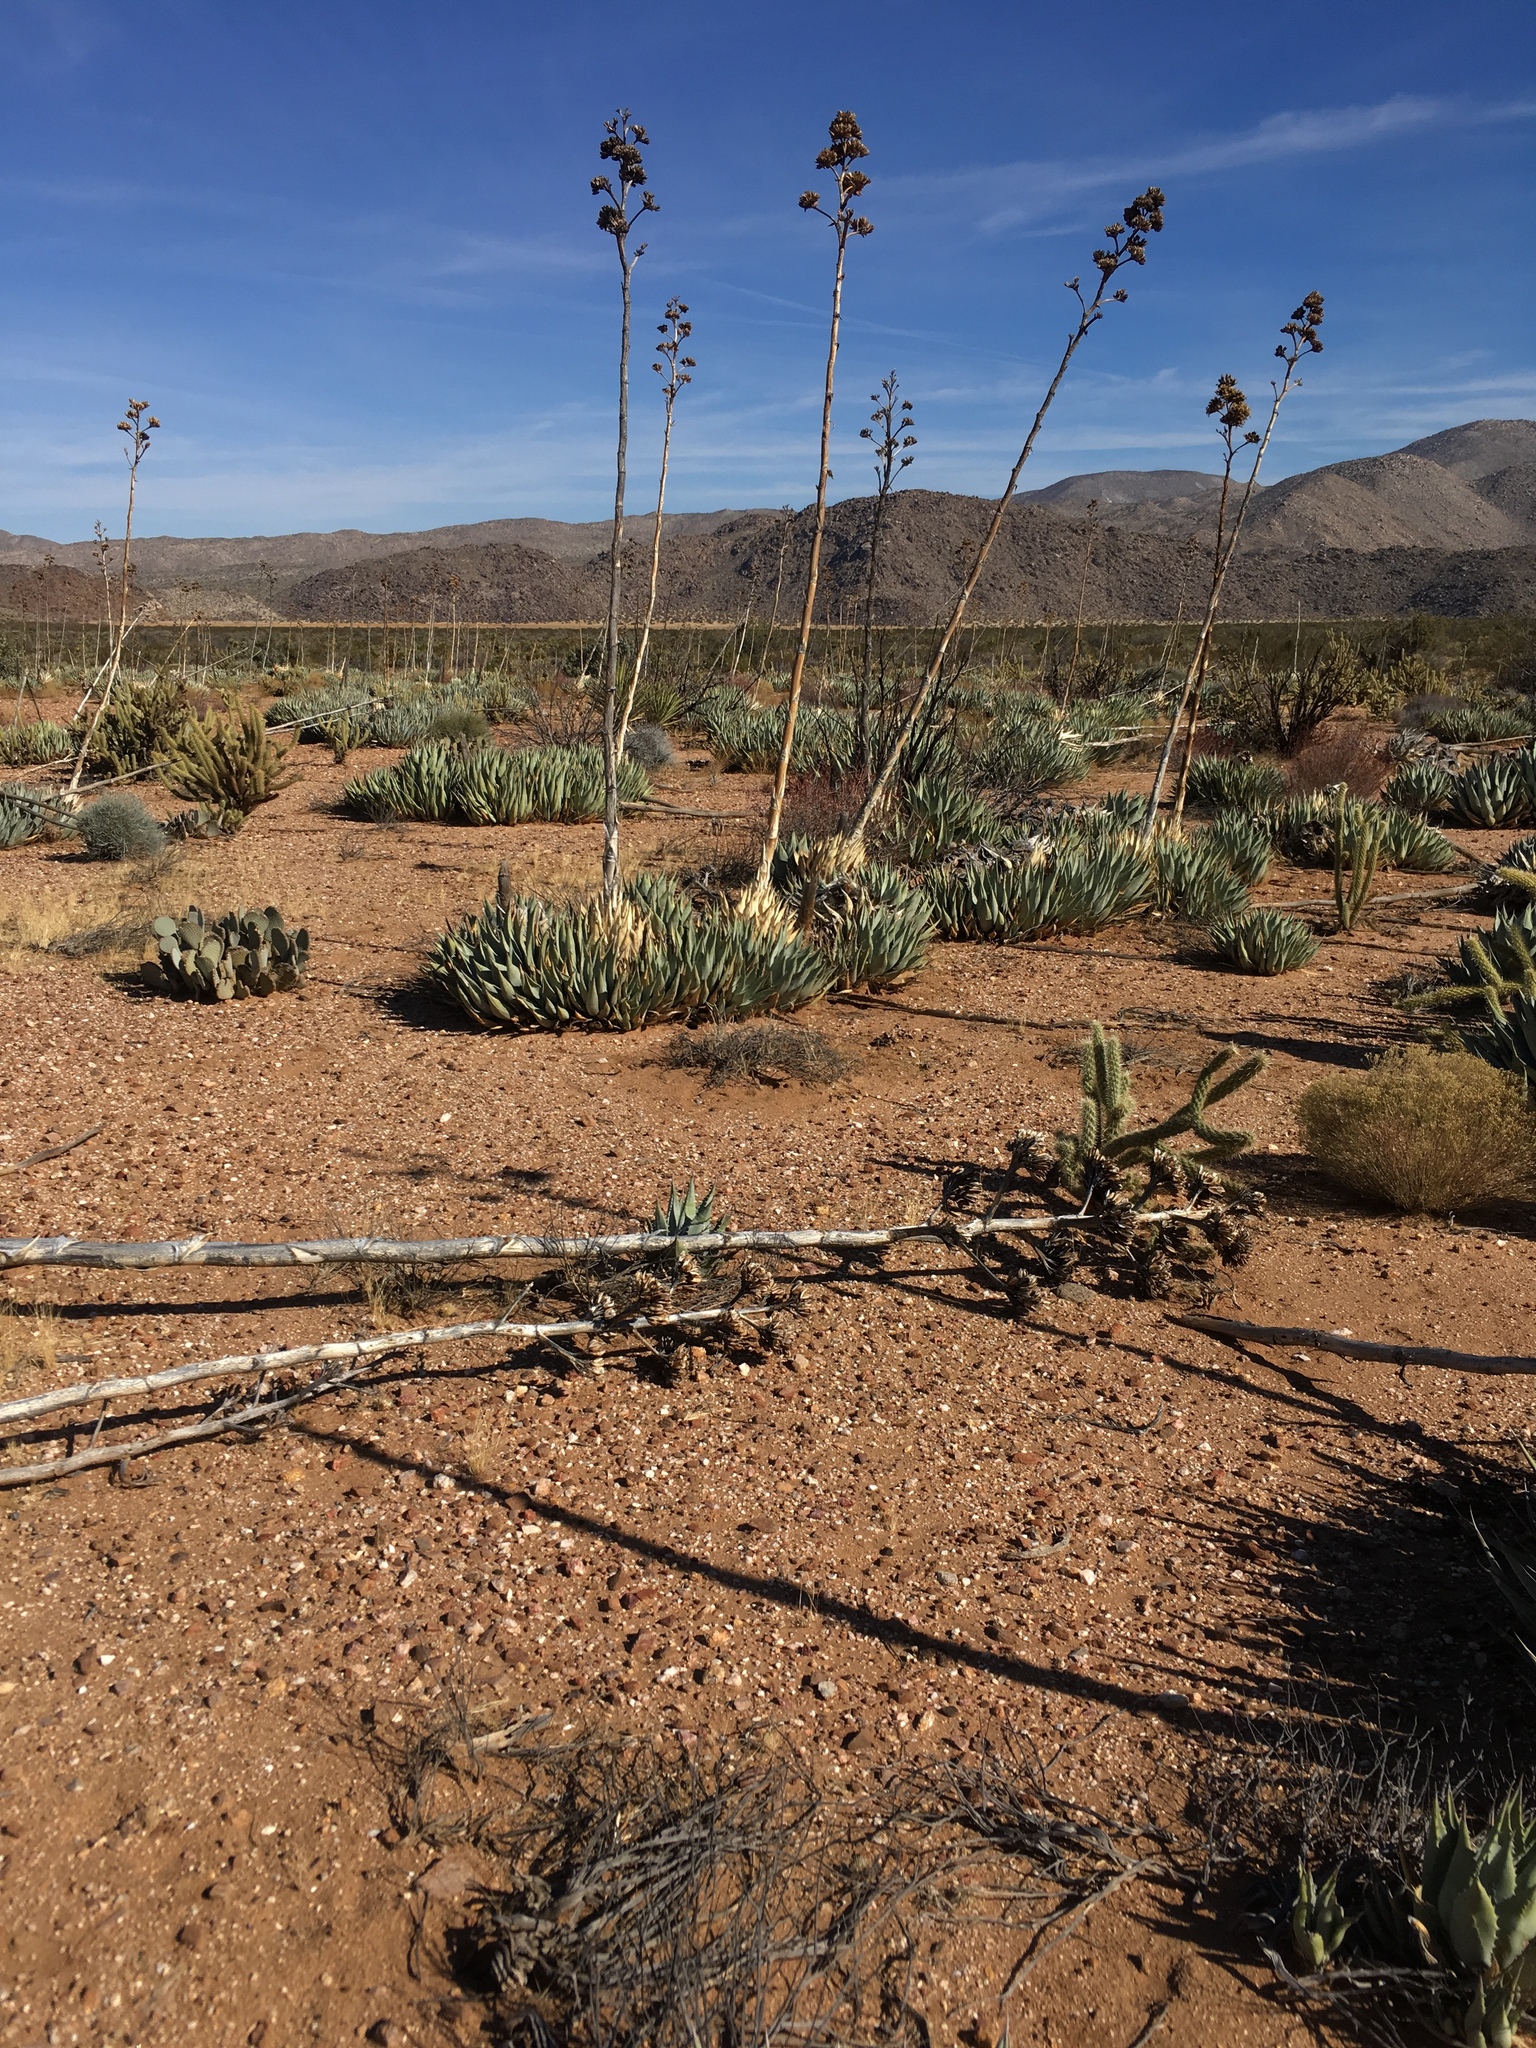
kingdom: Plantae
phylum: Tracheophyta
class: Liliopsida
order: Asparagales
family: Asparagaceae
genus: Agave
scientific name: Agave deserti
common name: Desert agave
